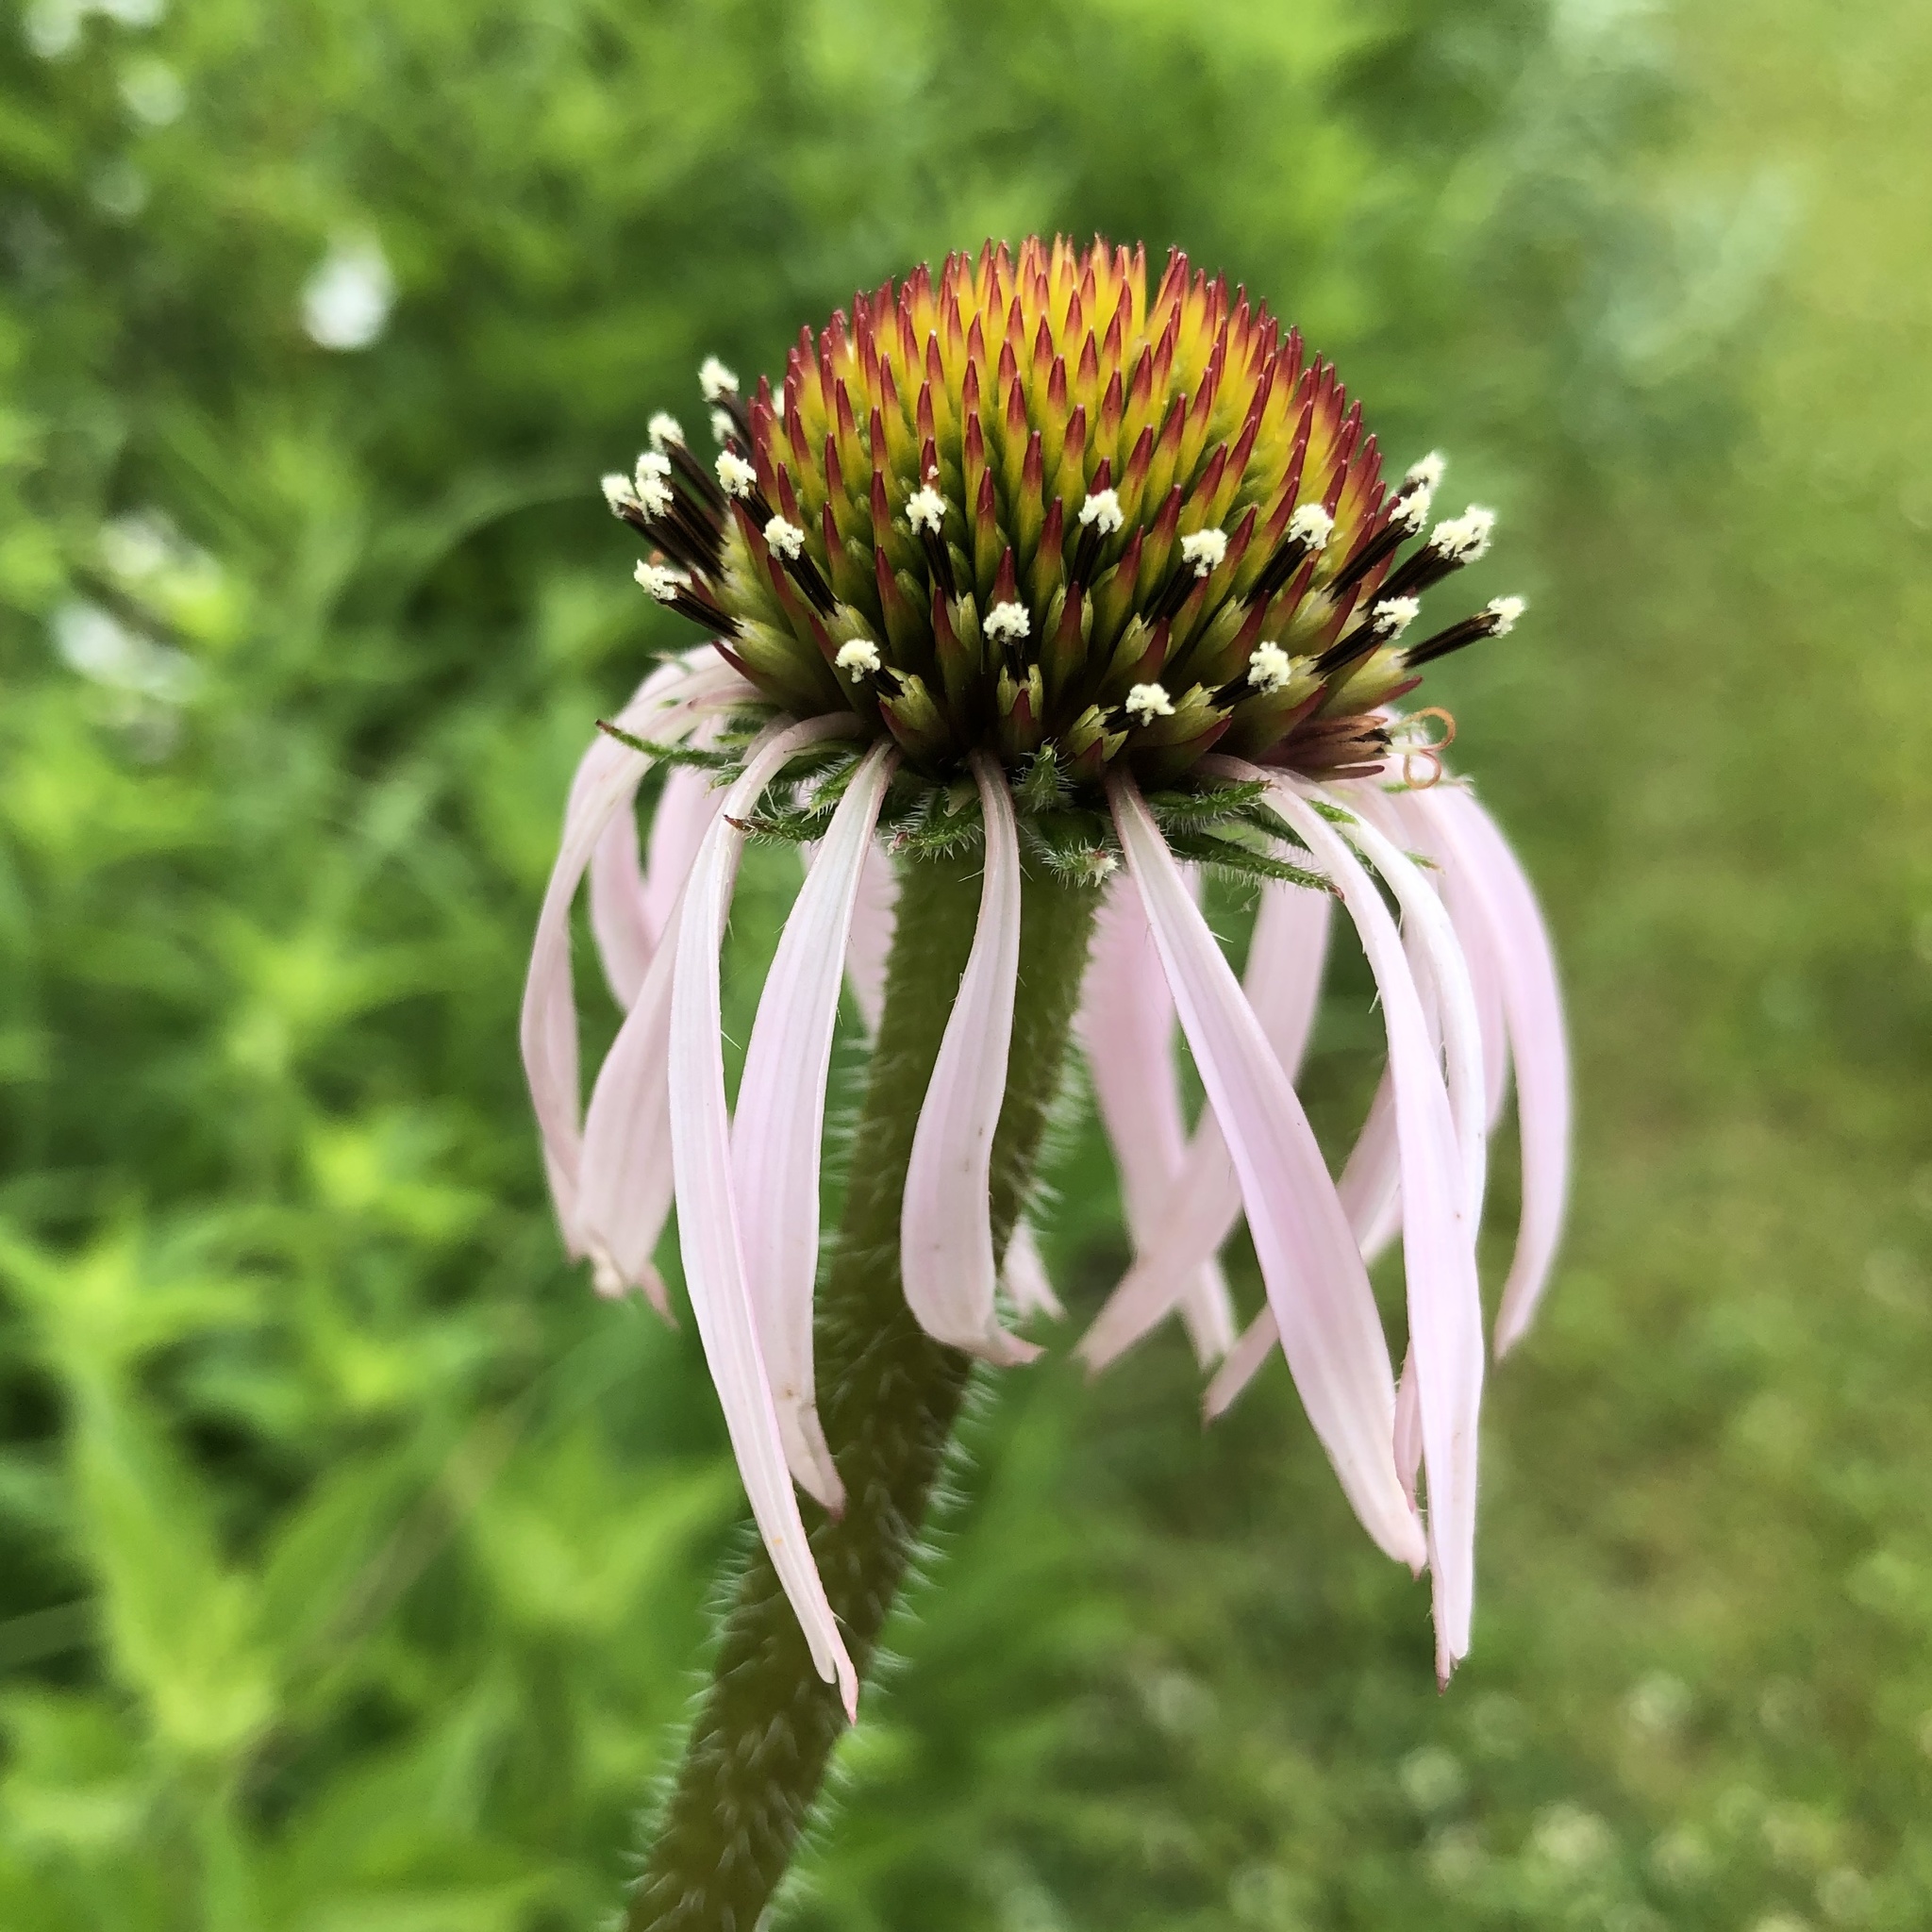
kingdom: Plantae
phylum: Tracheophyta
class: Magnoliopsida
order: Asterales
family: Asteraceae
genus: Echinacea
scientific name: Echinacea pallida
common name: Pale echinacea
